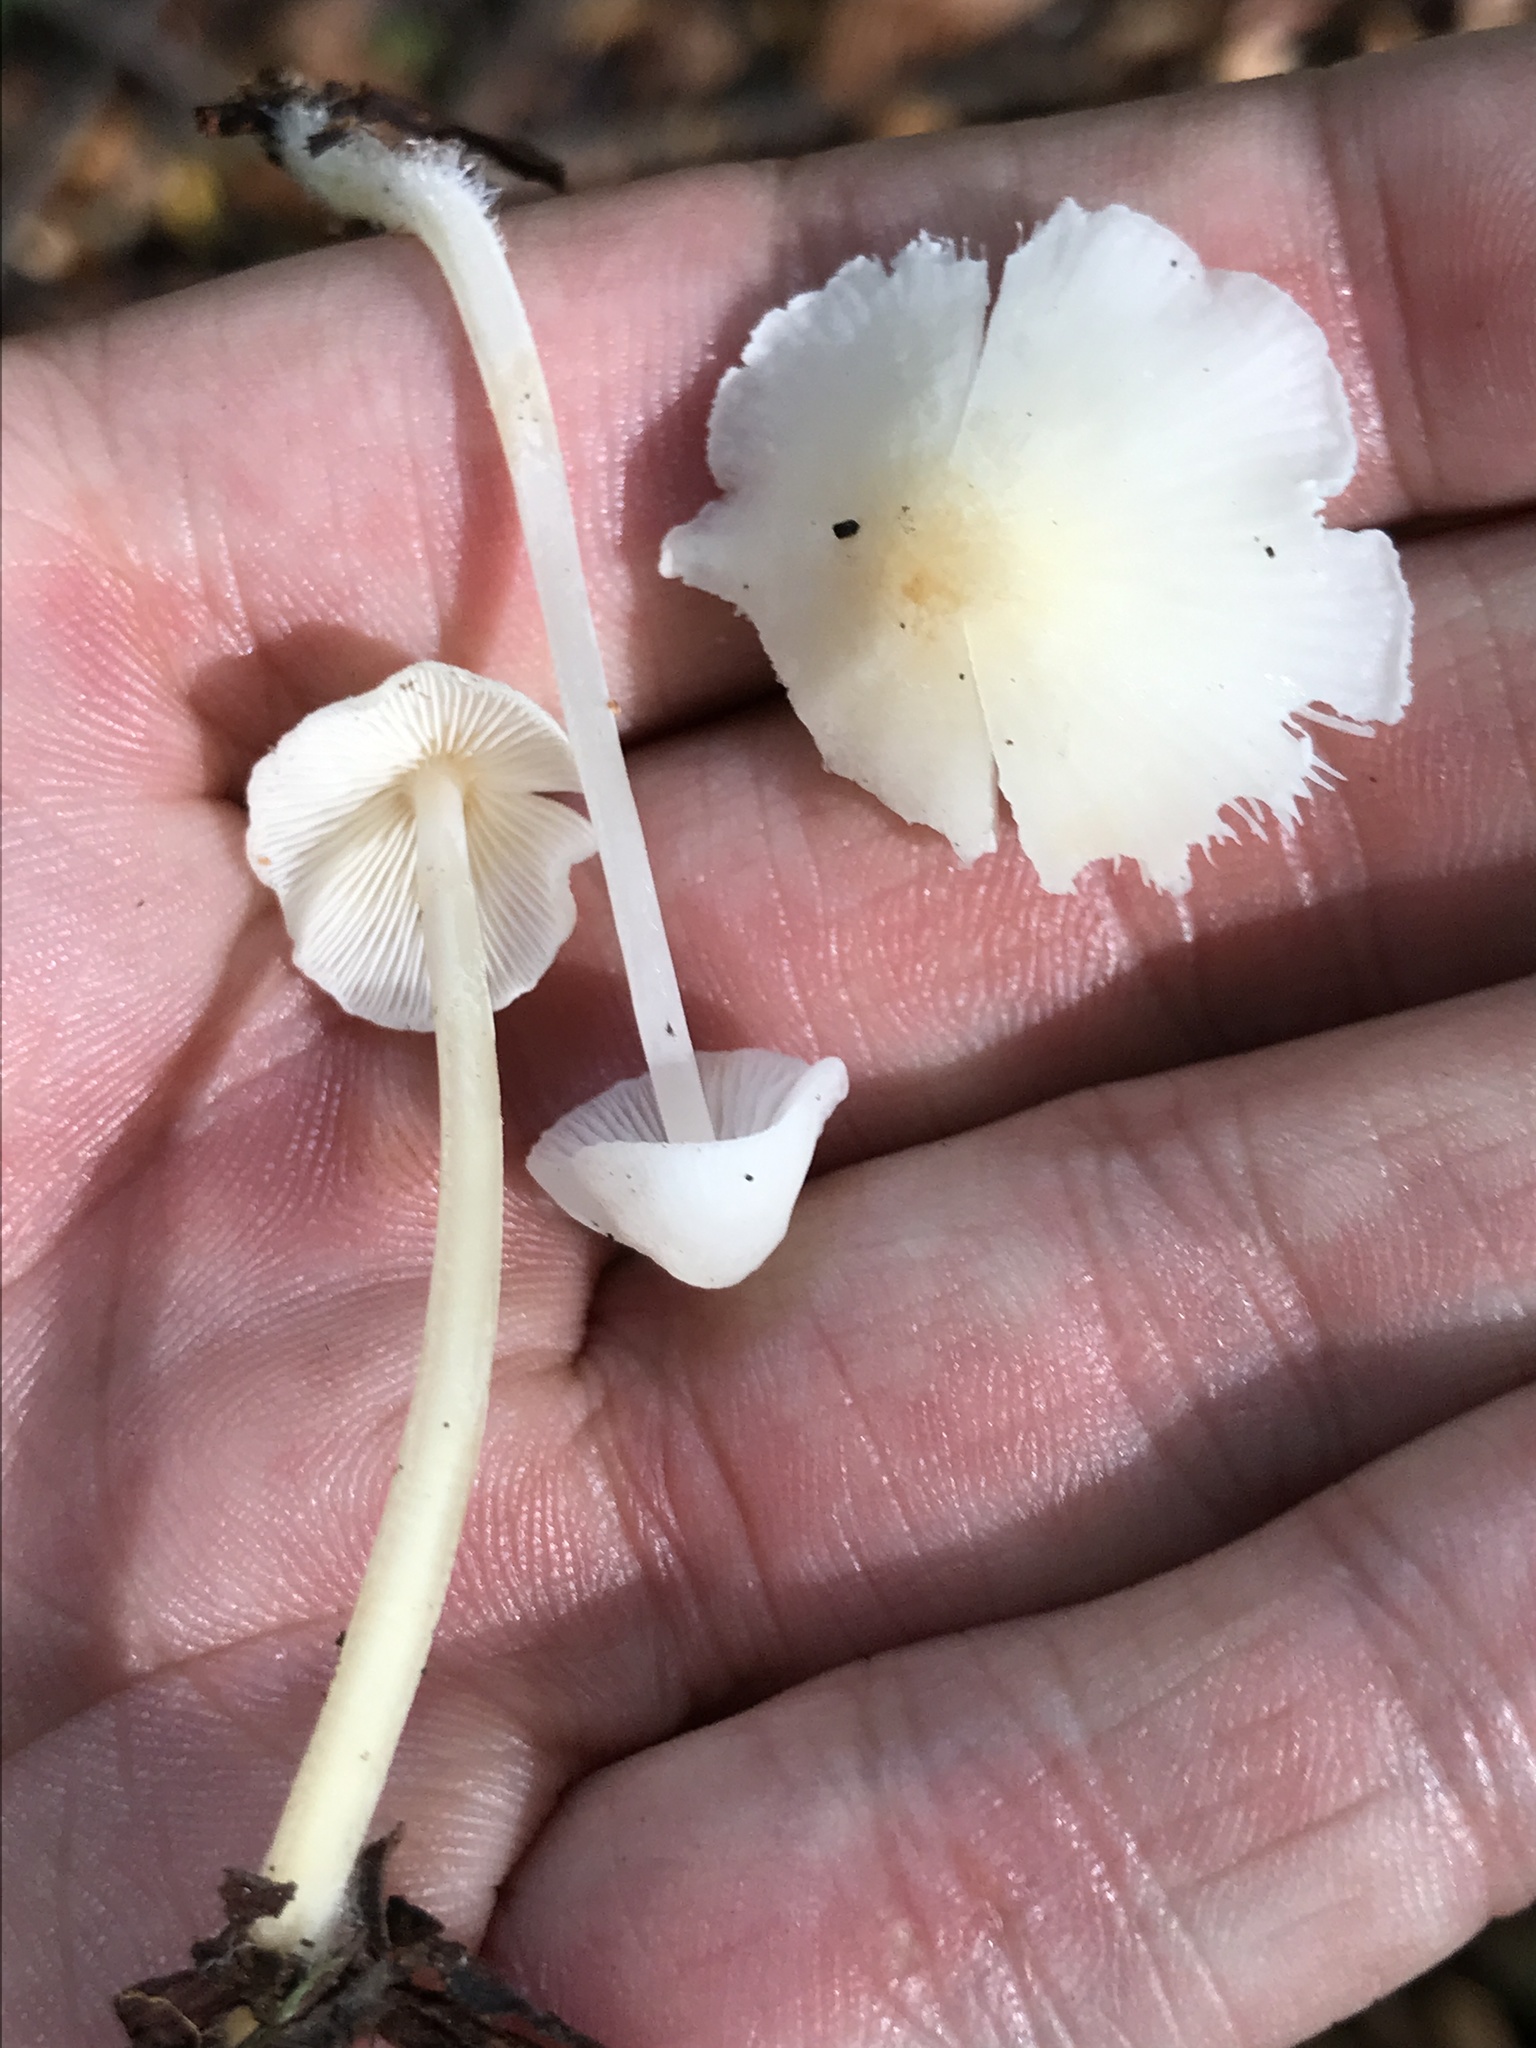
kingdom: Fungi
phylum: Basidiomycota
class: Agaricomycetes
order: Agaricales
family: Mycenaceae
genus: Hemimycena
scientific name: Hemimycena
